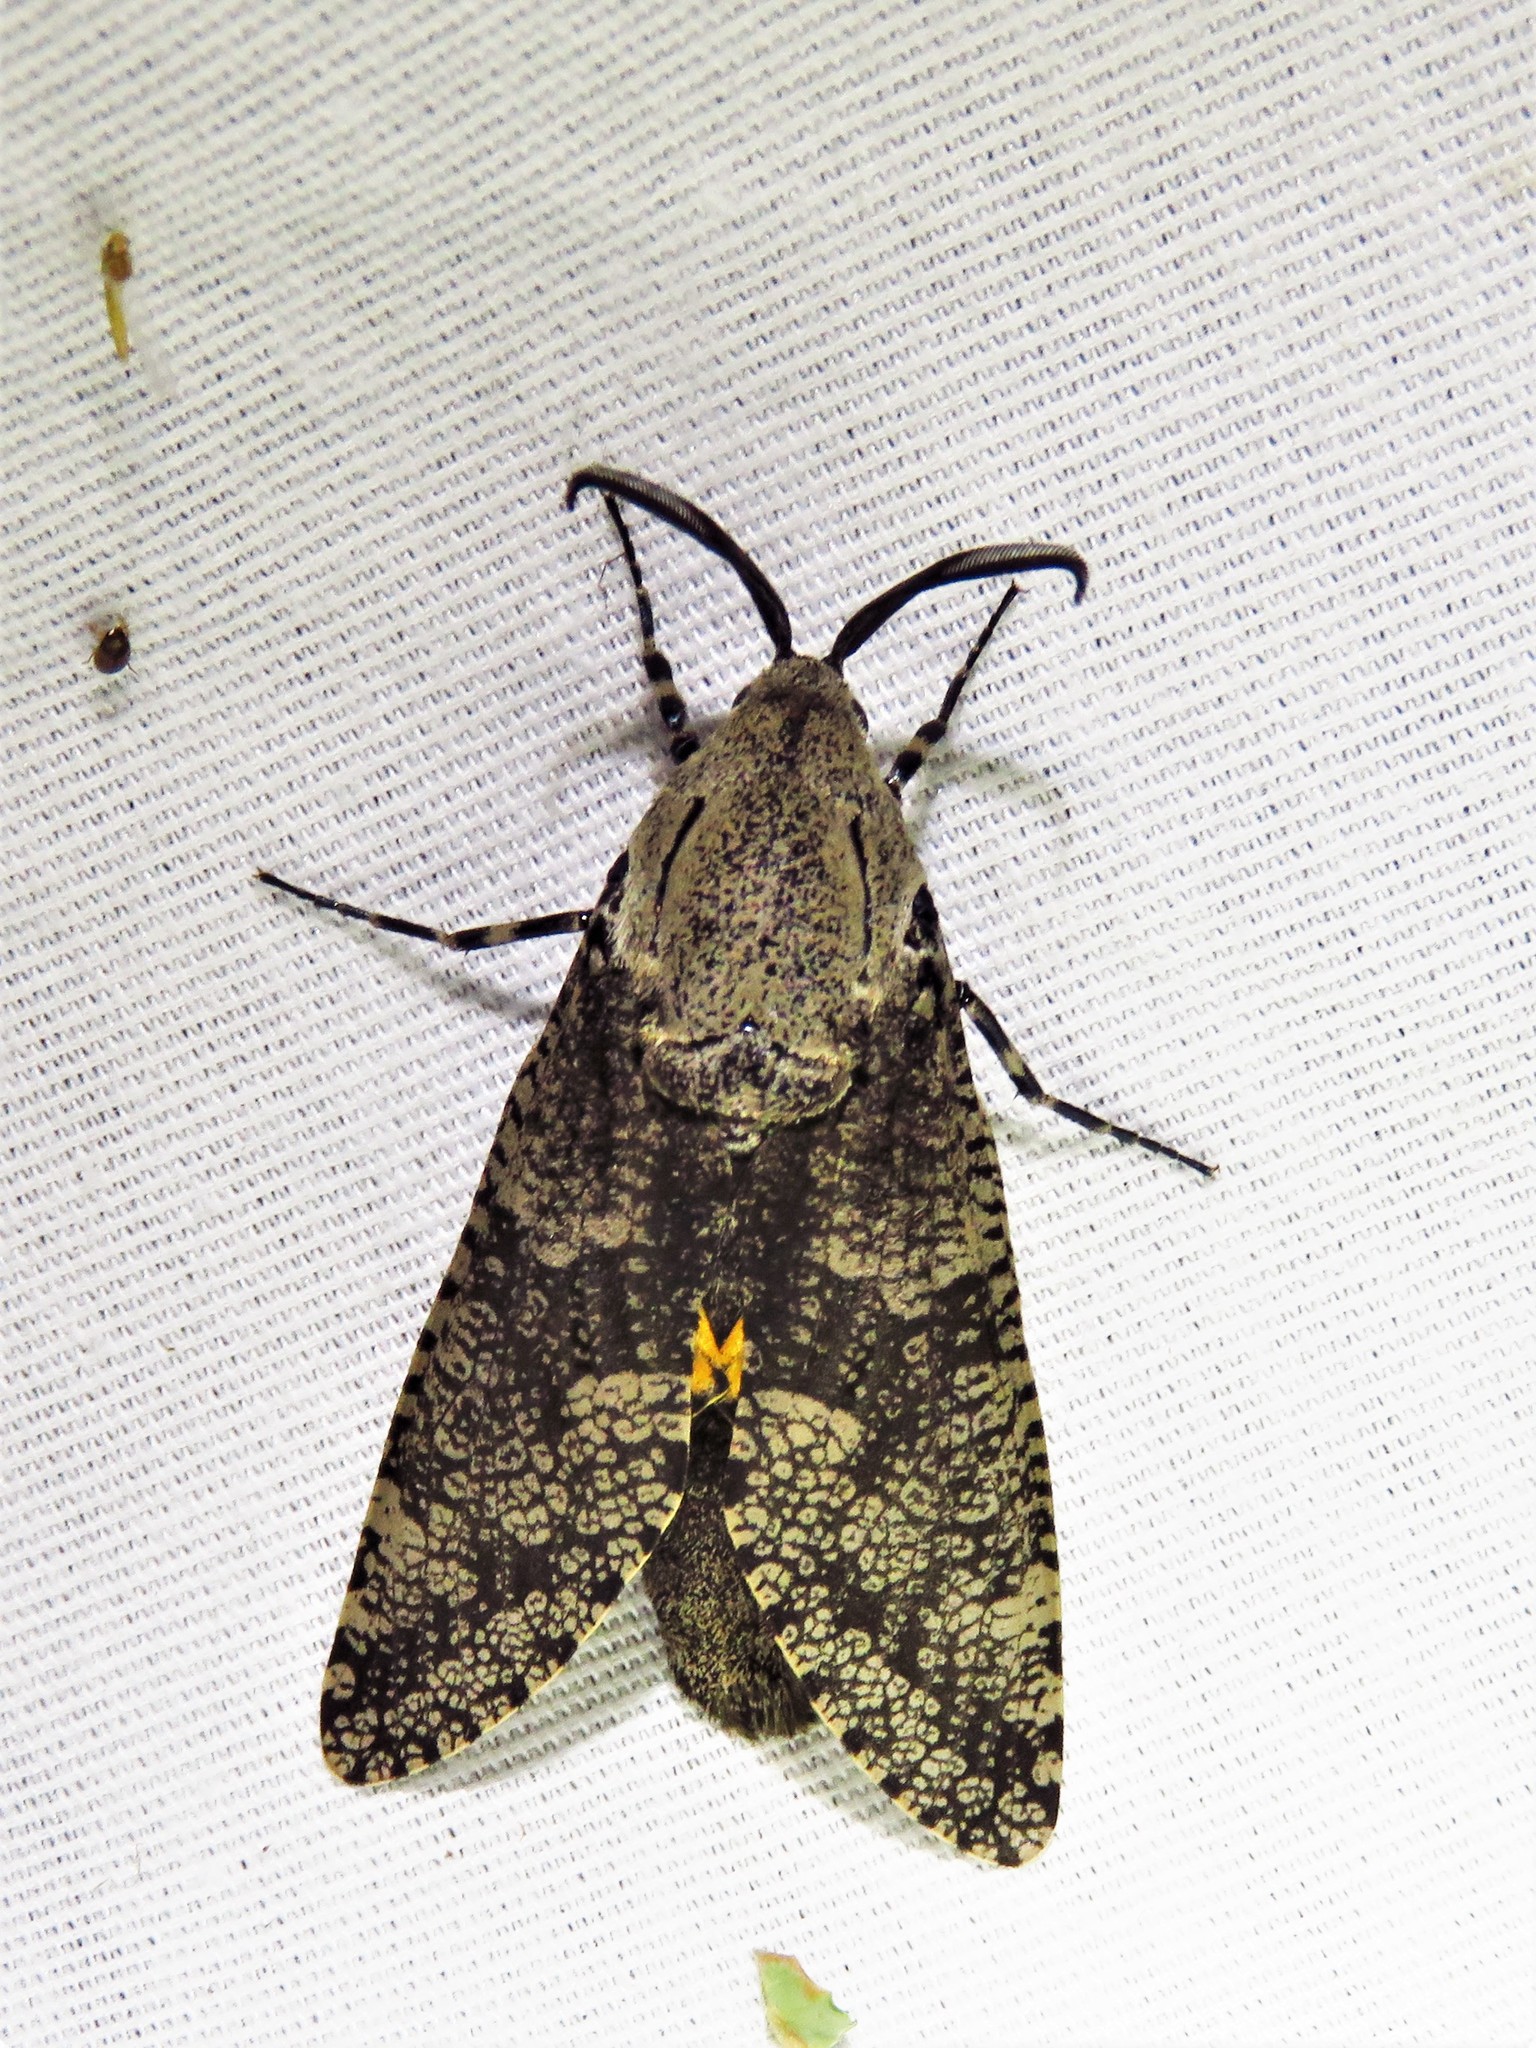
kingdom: Animalia
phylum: Arthropoda
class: Insecta
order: Lepidoptera
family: Cossidae
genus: Prionoxystus
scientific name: Prionoxystus robiniae
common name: Carpenterworm
